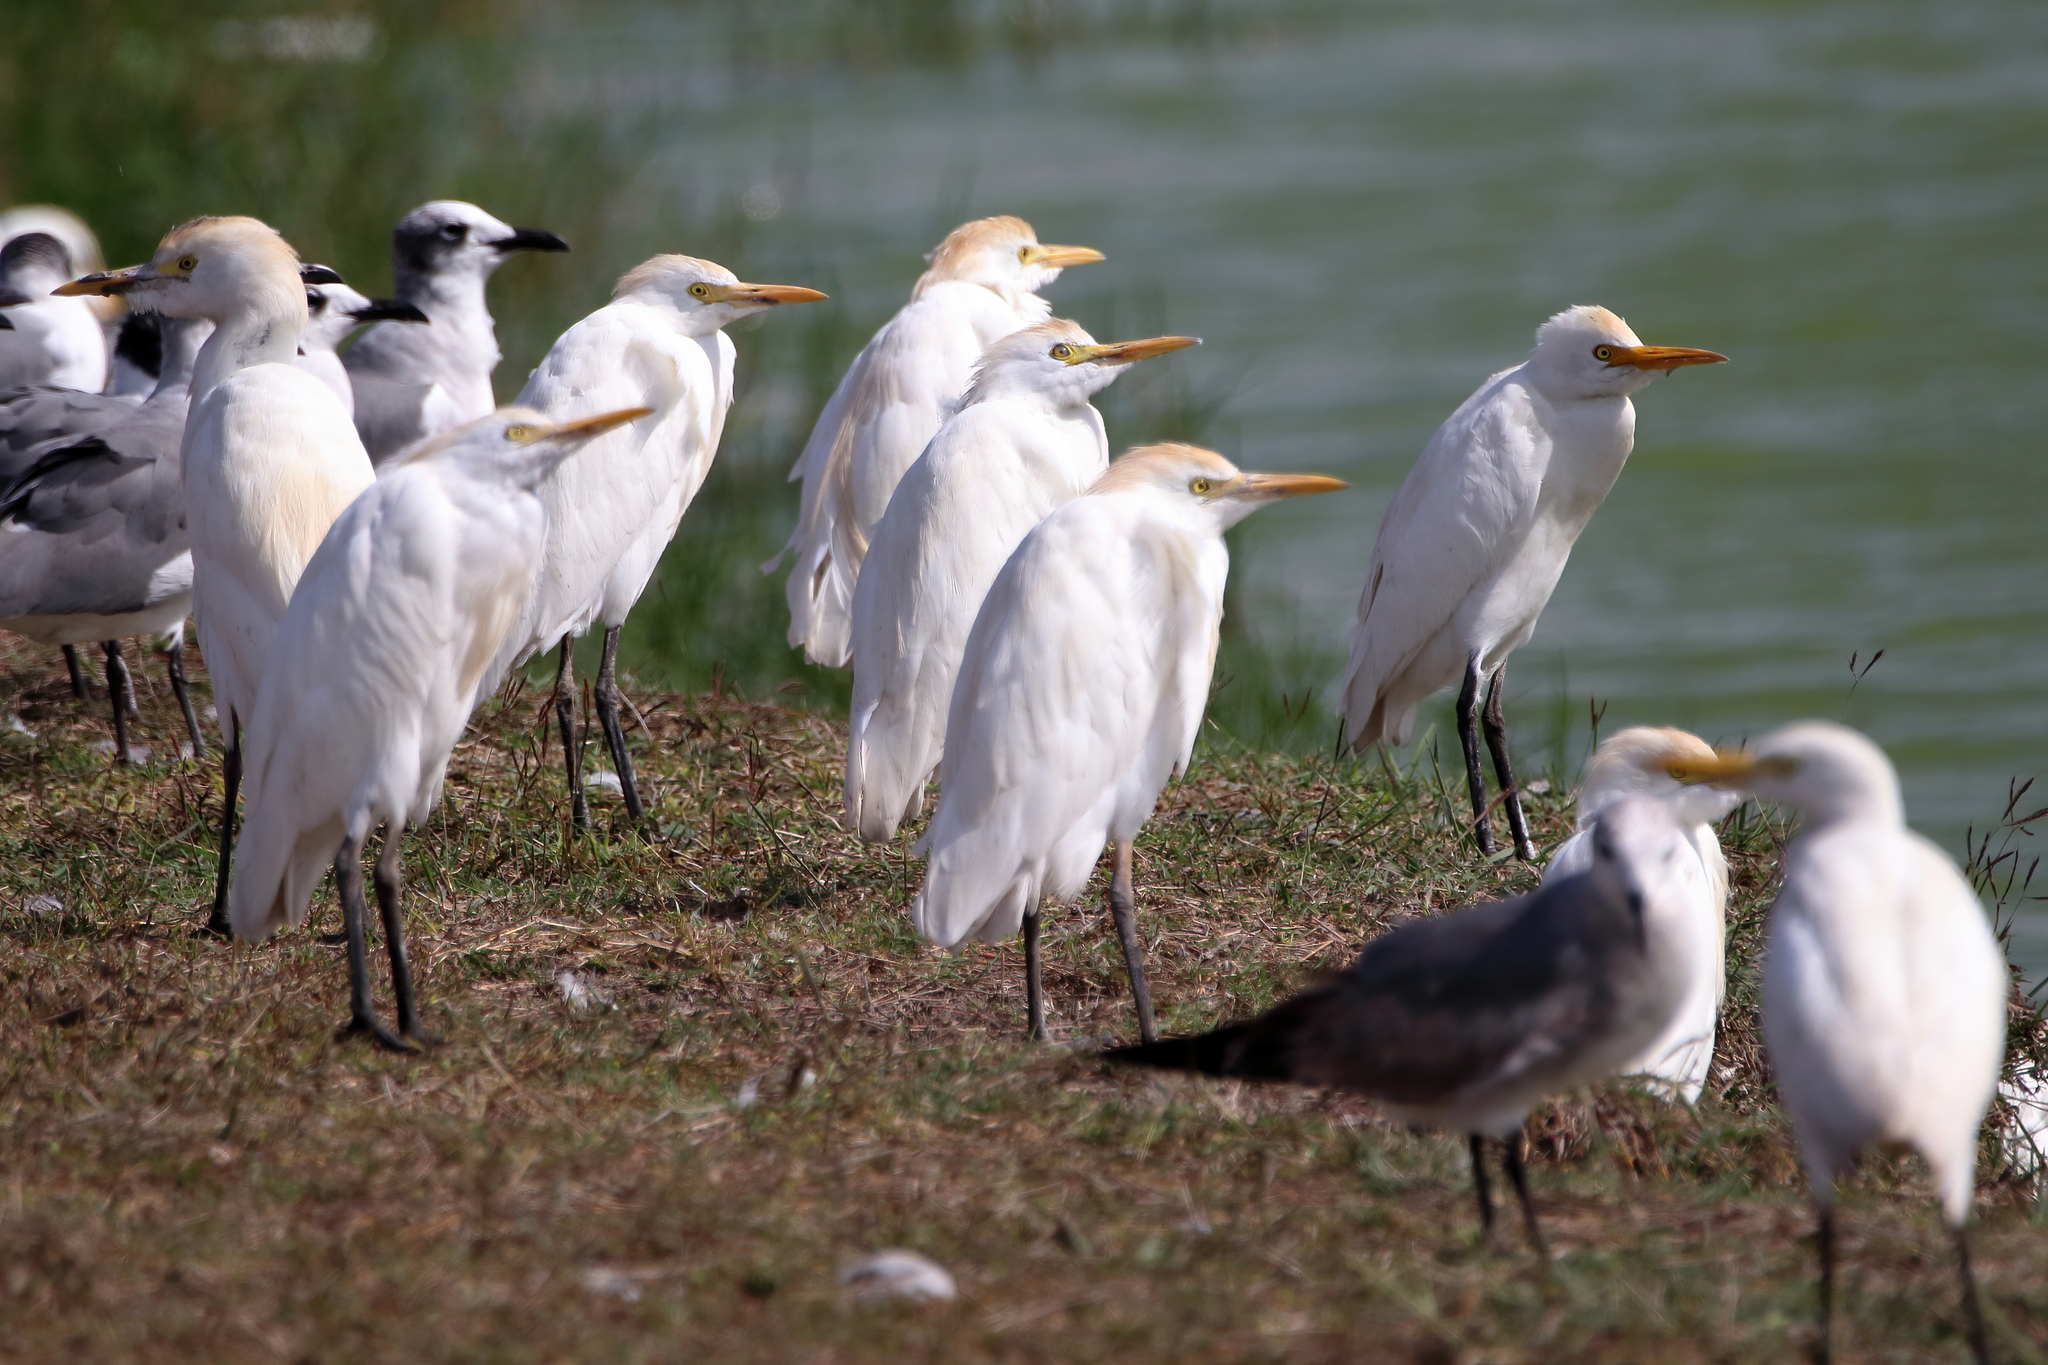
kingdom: Animalia
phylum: Chordata
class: Aves
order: Pelecaniformes
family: Ardeidae
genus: Bubulcus
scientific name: Bubulcus ibis
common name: Cattle egret
